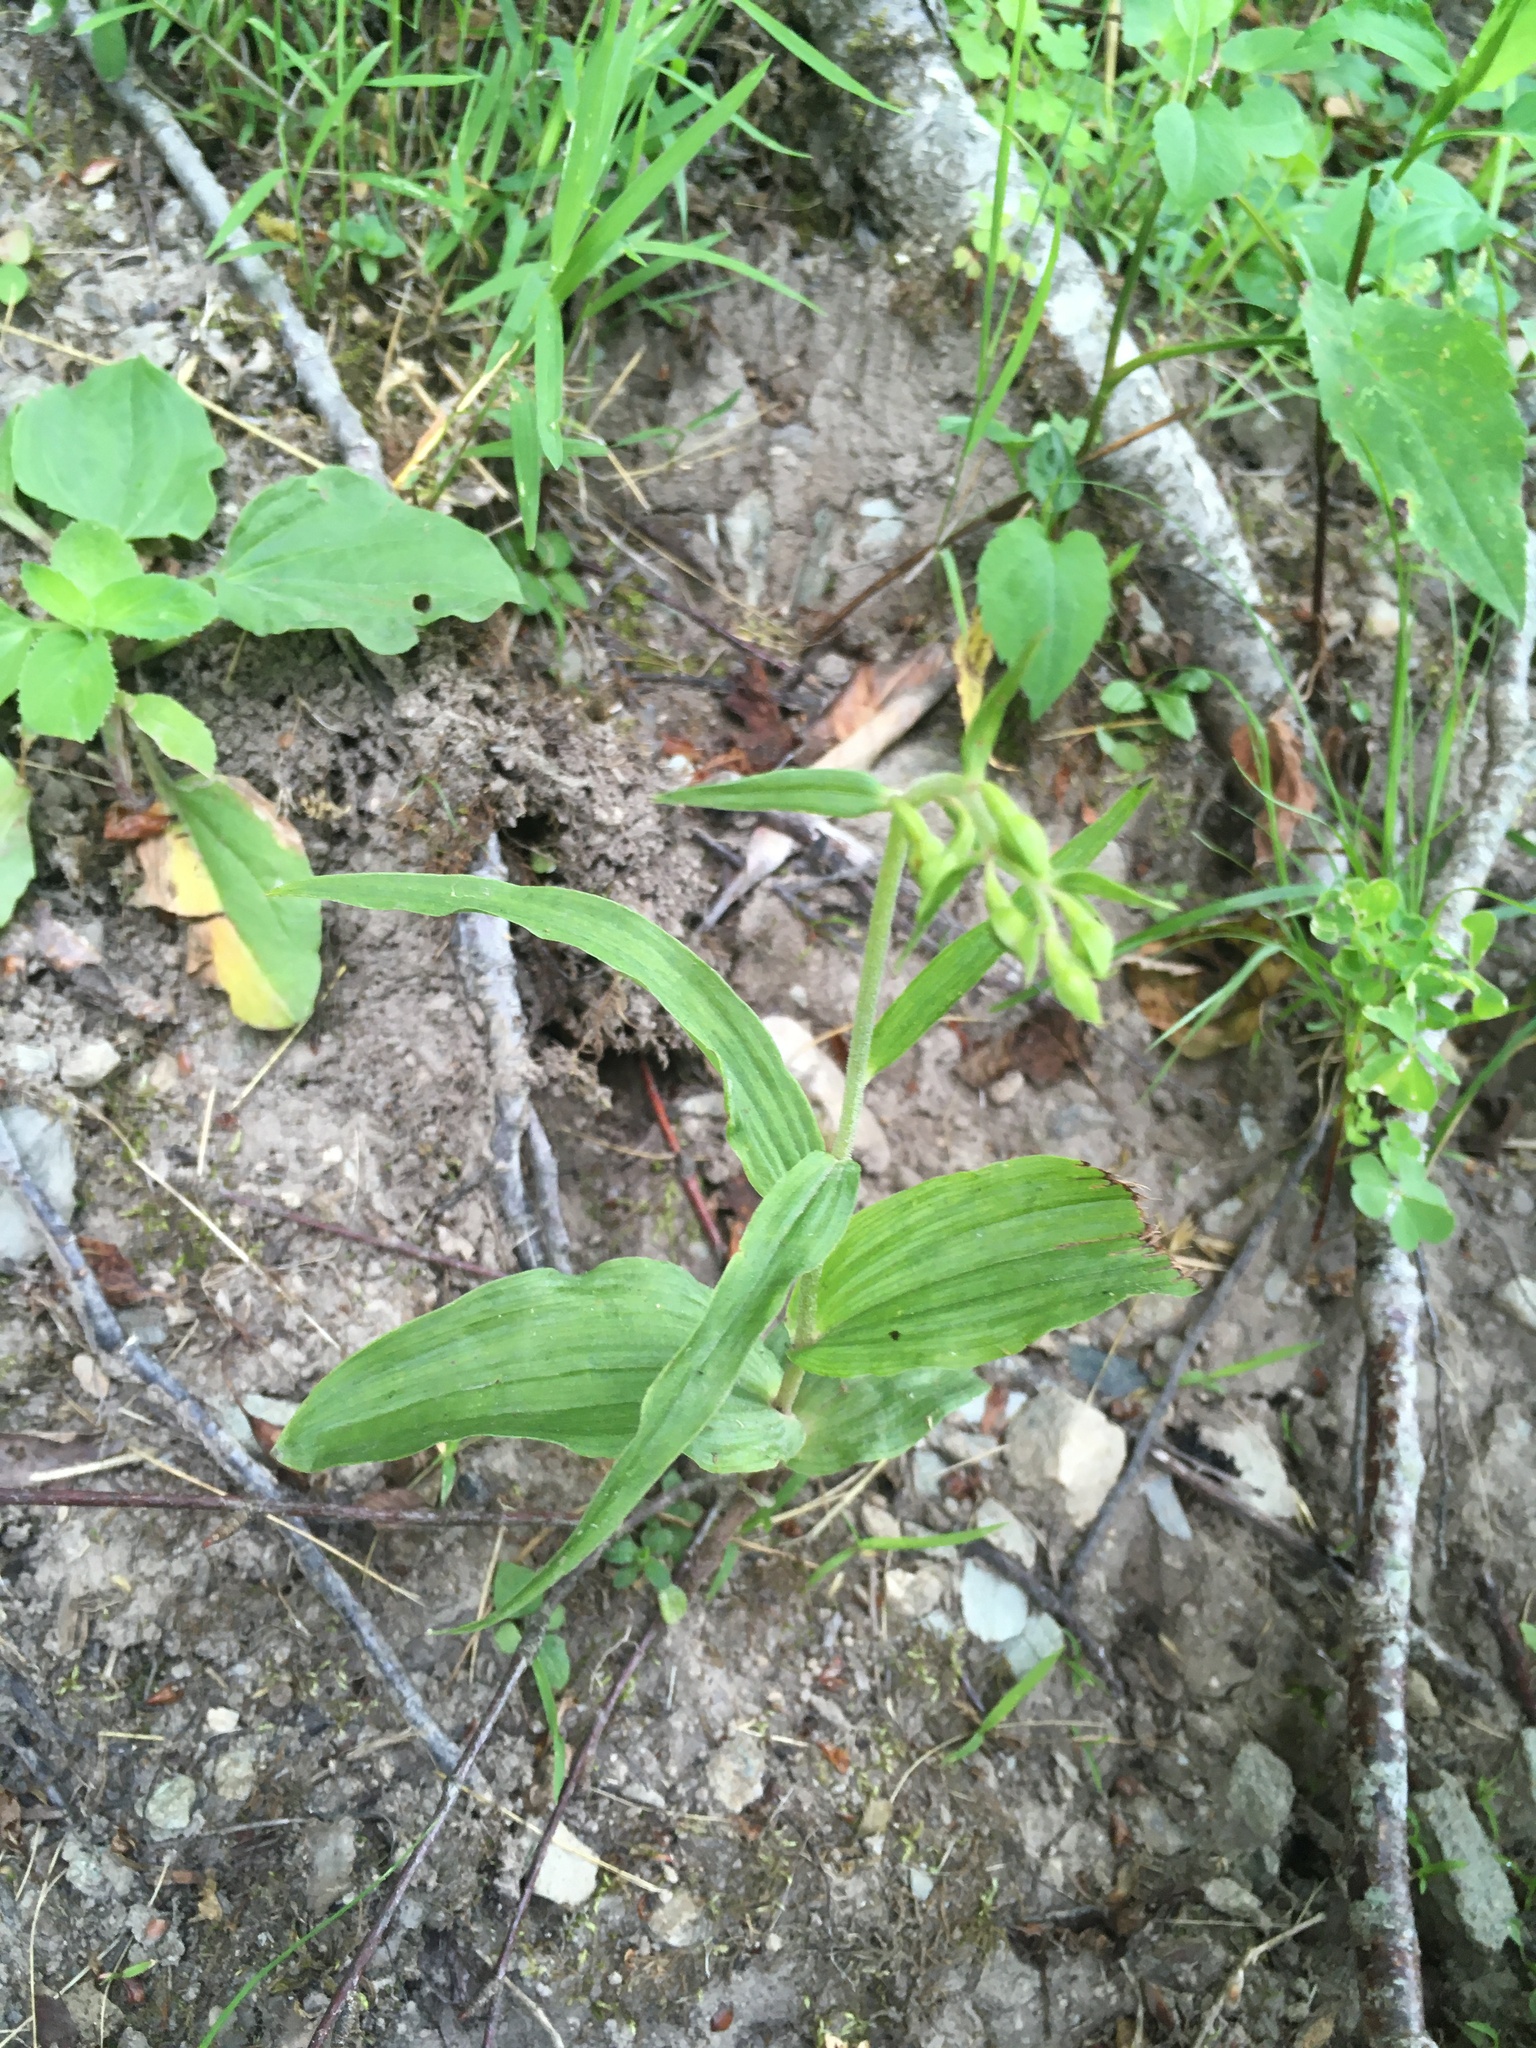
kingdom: Plantae
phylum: Tracheophyta
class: Liliopsida
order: Asparagales
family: Orchidaceae
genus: Epipactis
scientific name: Epipactis helleborine
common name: Broad-leaved helleborine
